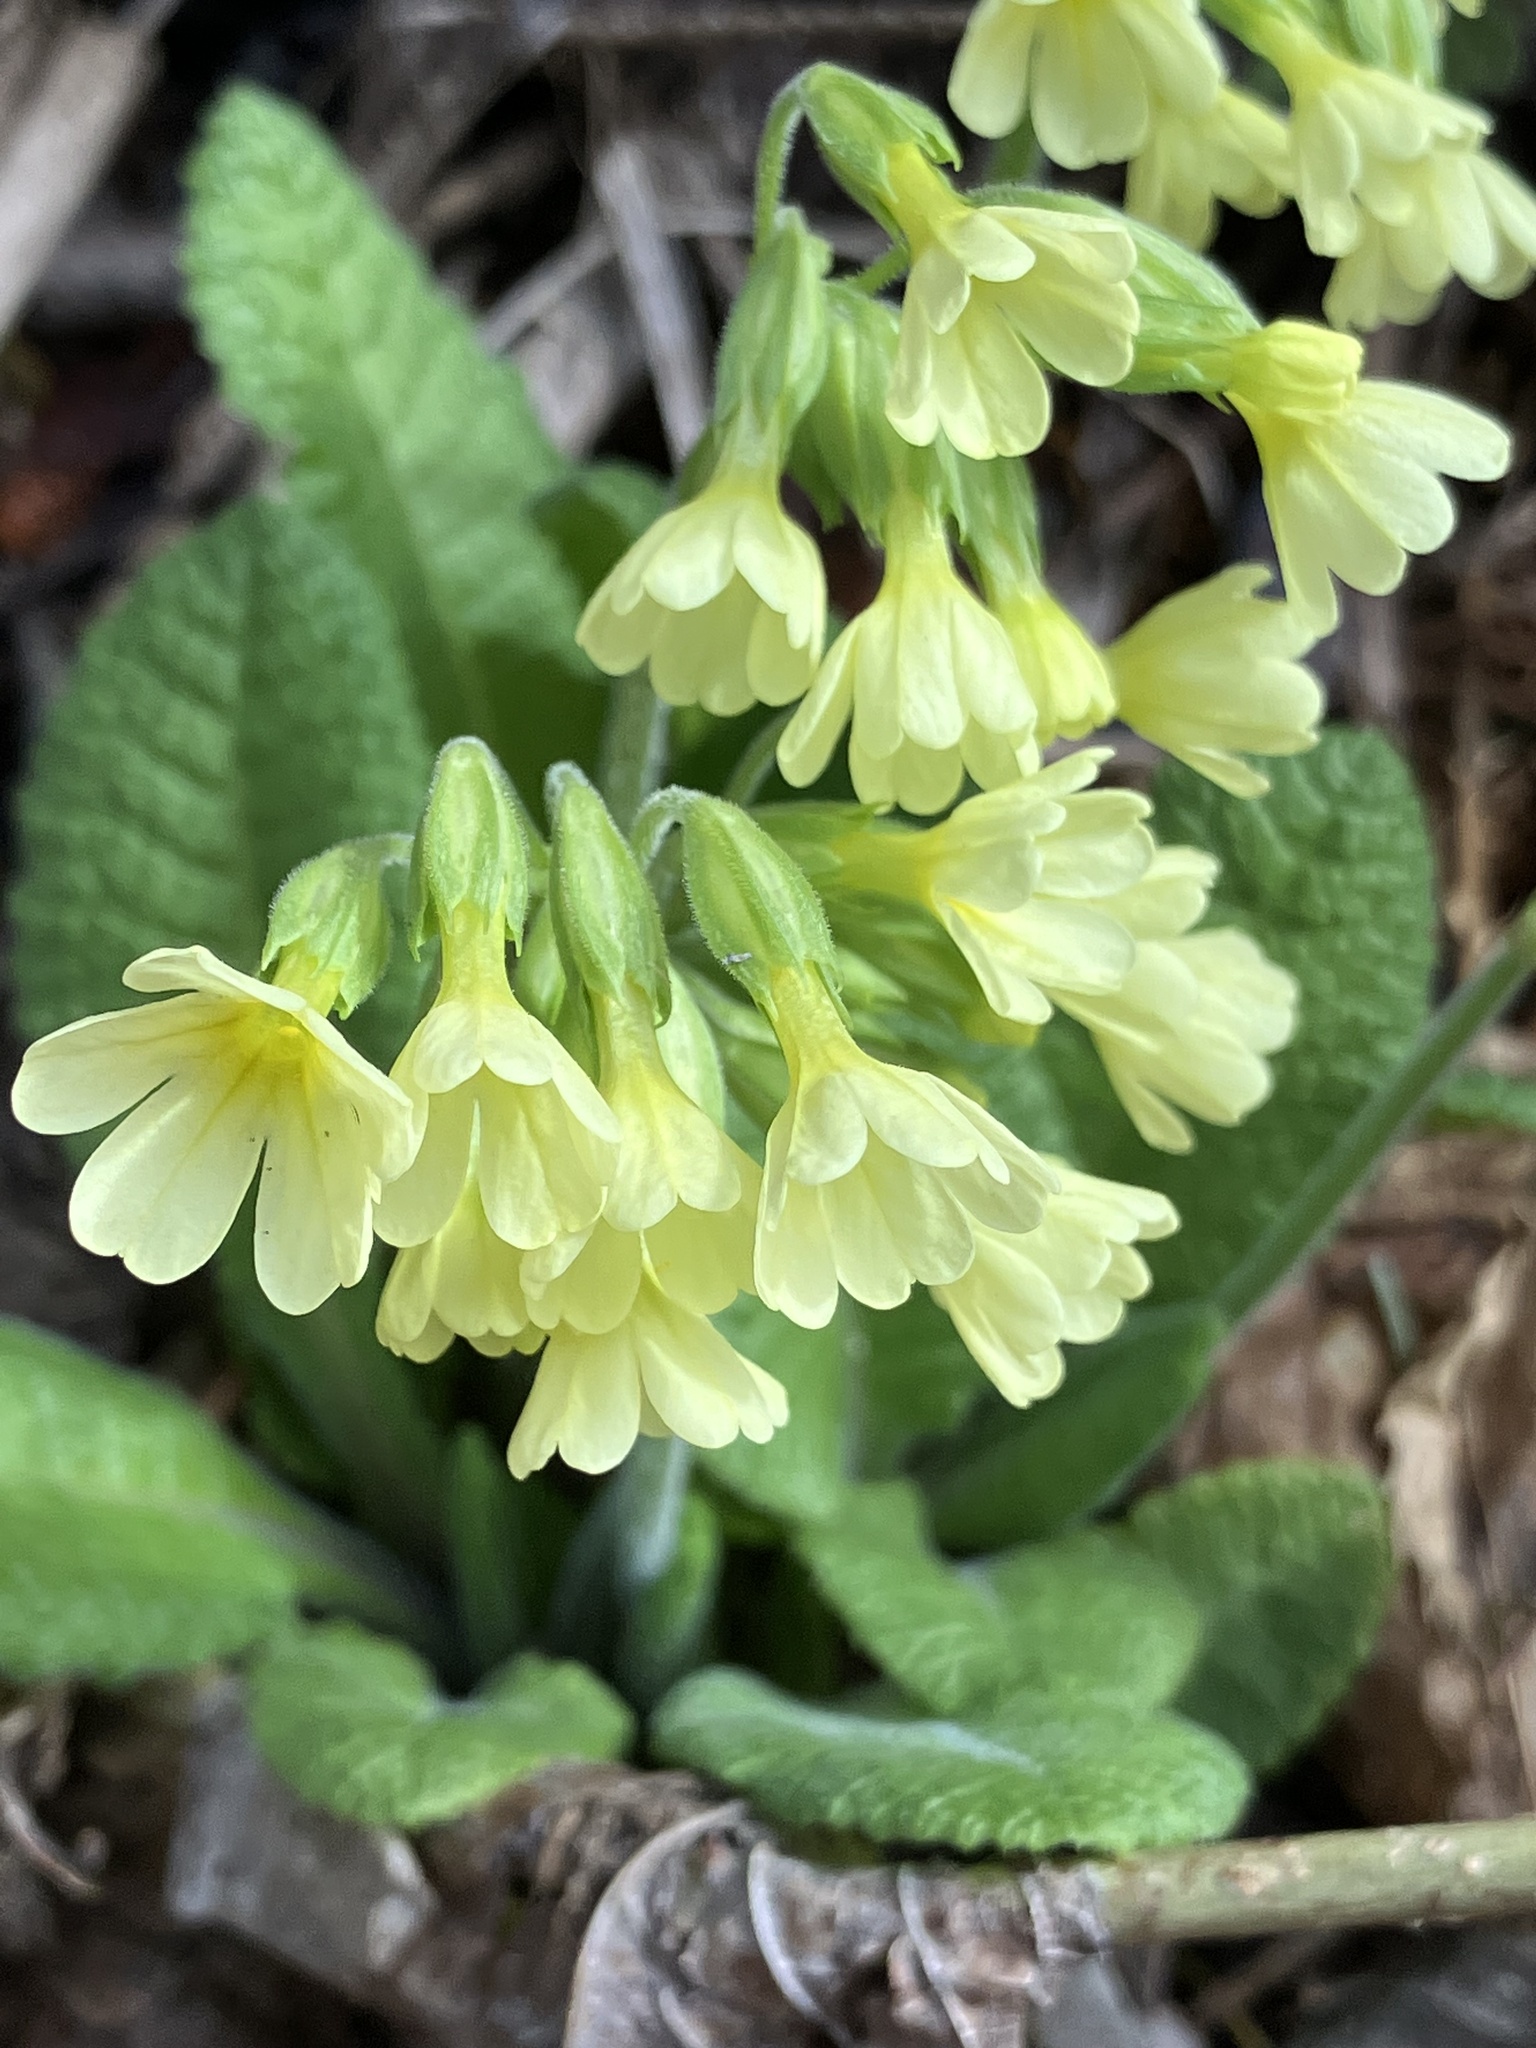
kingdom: Plantae
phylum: Tracheophyta
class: Magnoliopsida
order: Ericales
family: Primulaceae
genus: Primula
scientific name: Primula elatior
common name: Oxlip
